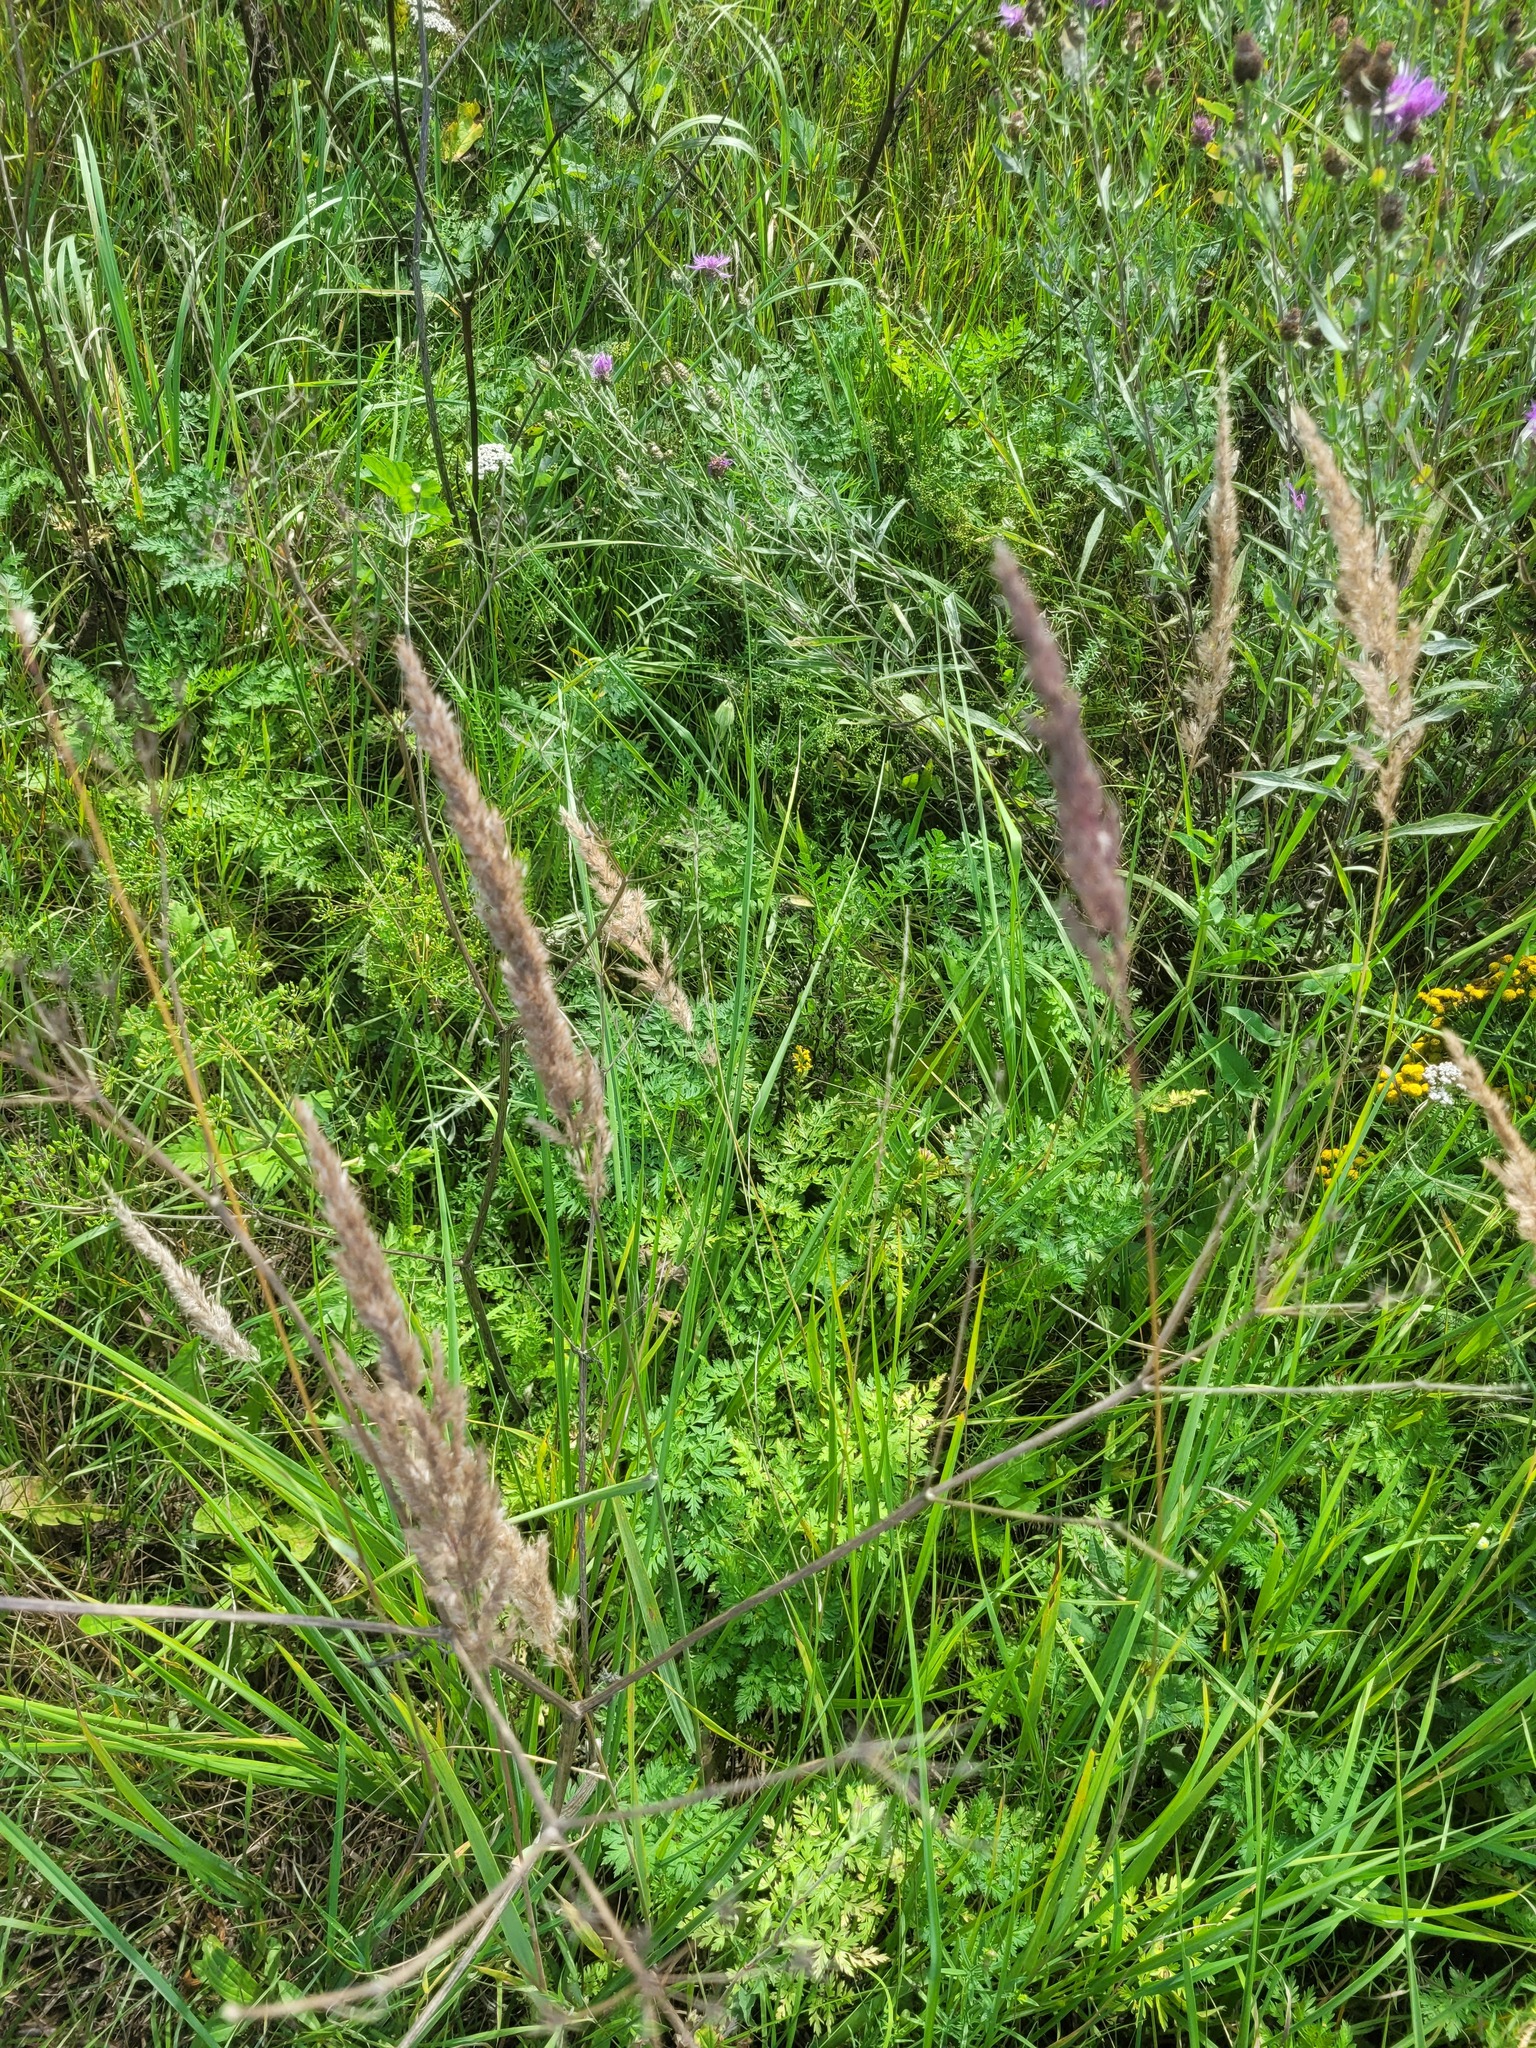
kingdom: Plantae
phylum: Tracheophyta
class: Magnoliopsida
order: Apiales
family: Apiaceae
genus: Anthriscus
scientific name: Anthriscus sylvestris
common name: Cow parsley
